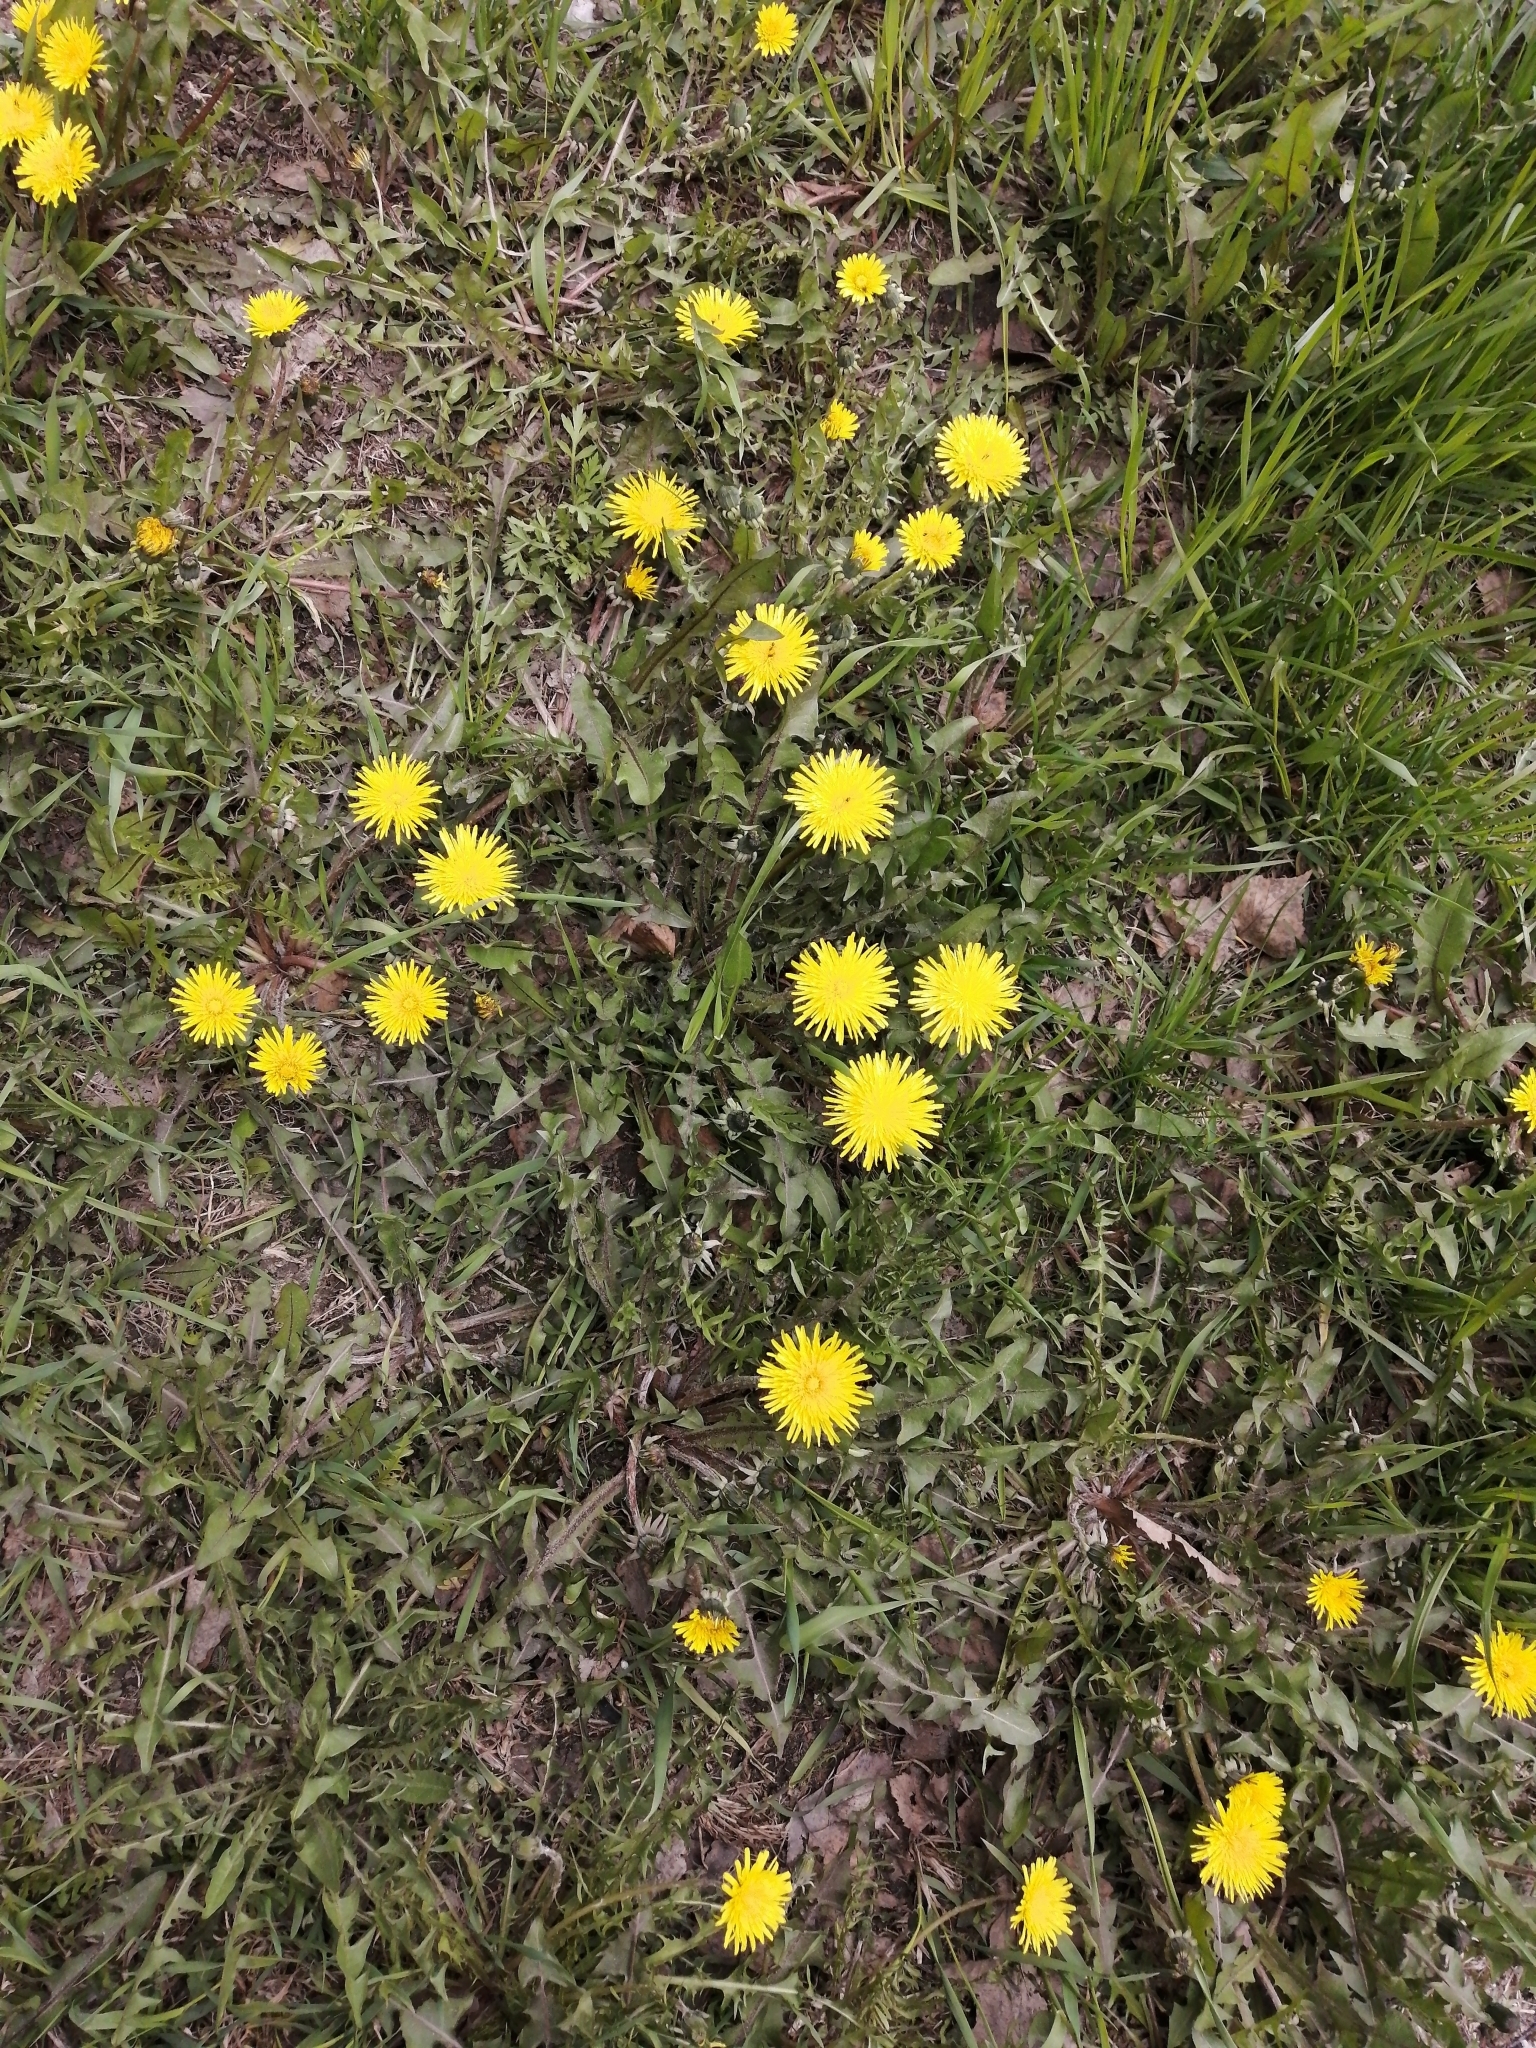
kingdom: Plantae
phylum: Tracheophyta
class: Magnoliopsida
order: Asterales
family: Asteraceae
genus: Taraxacum
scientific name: Taraxacum officinale
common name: Common dandelion
